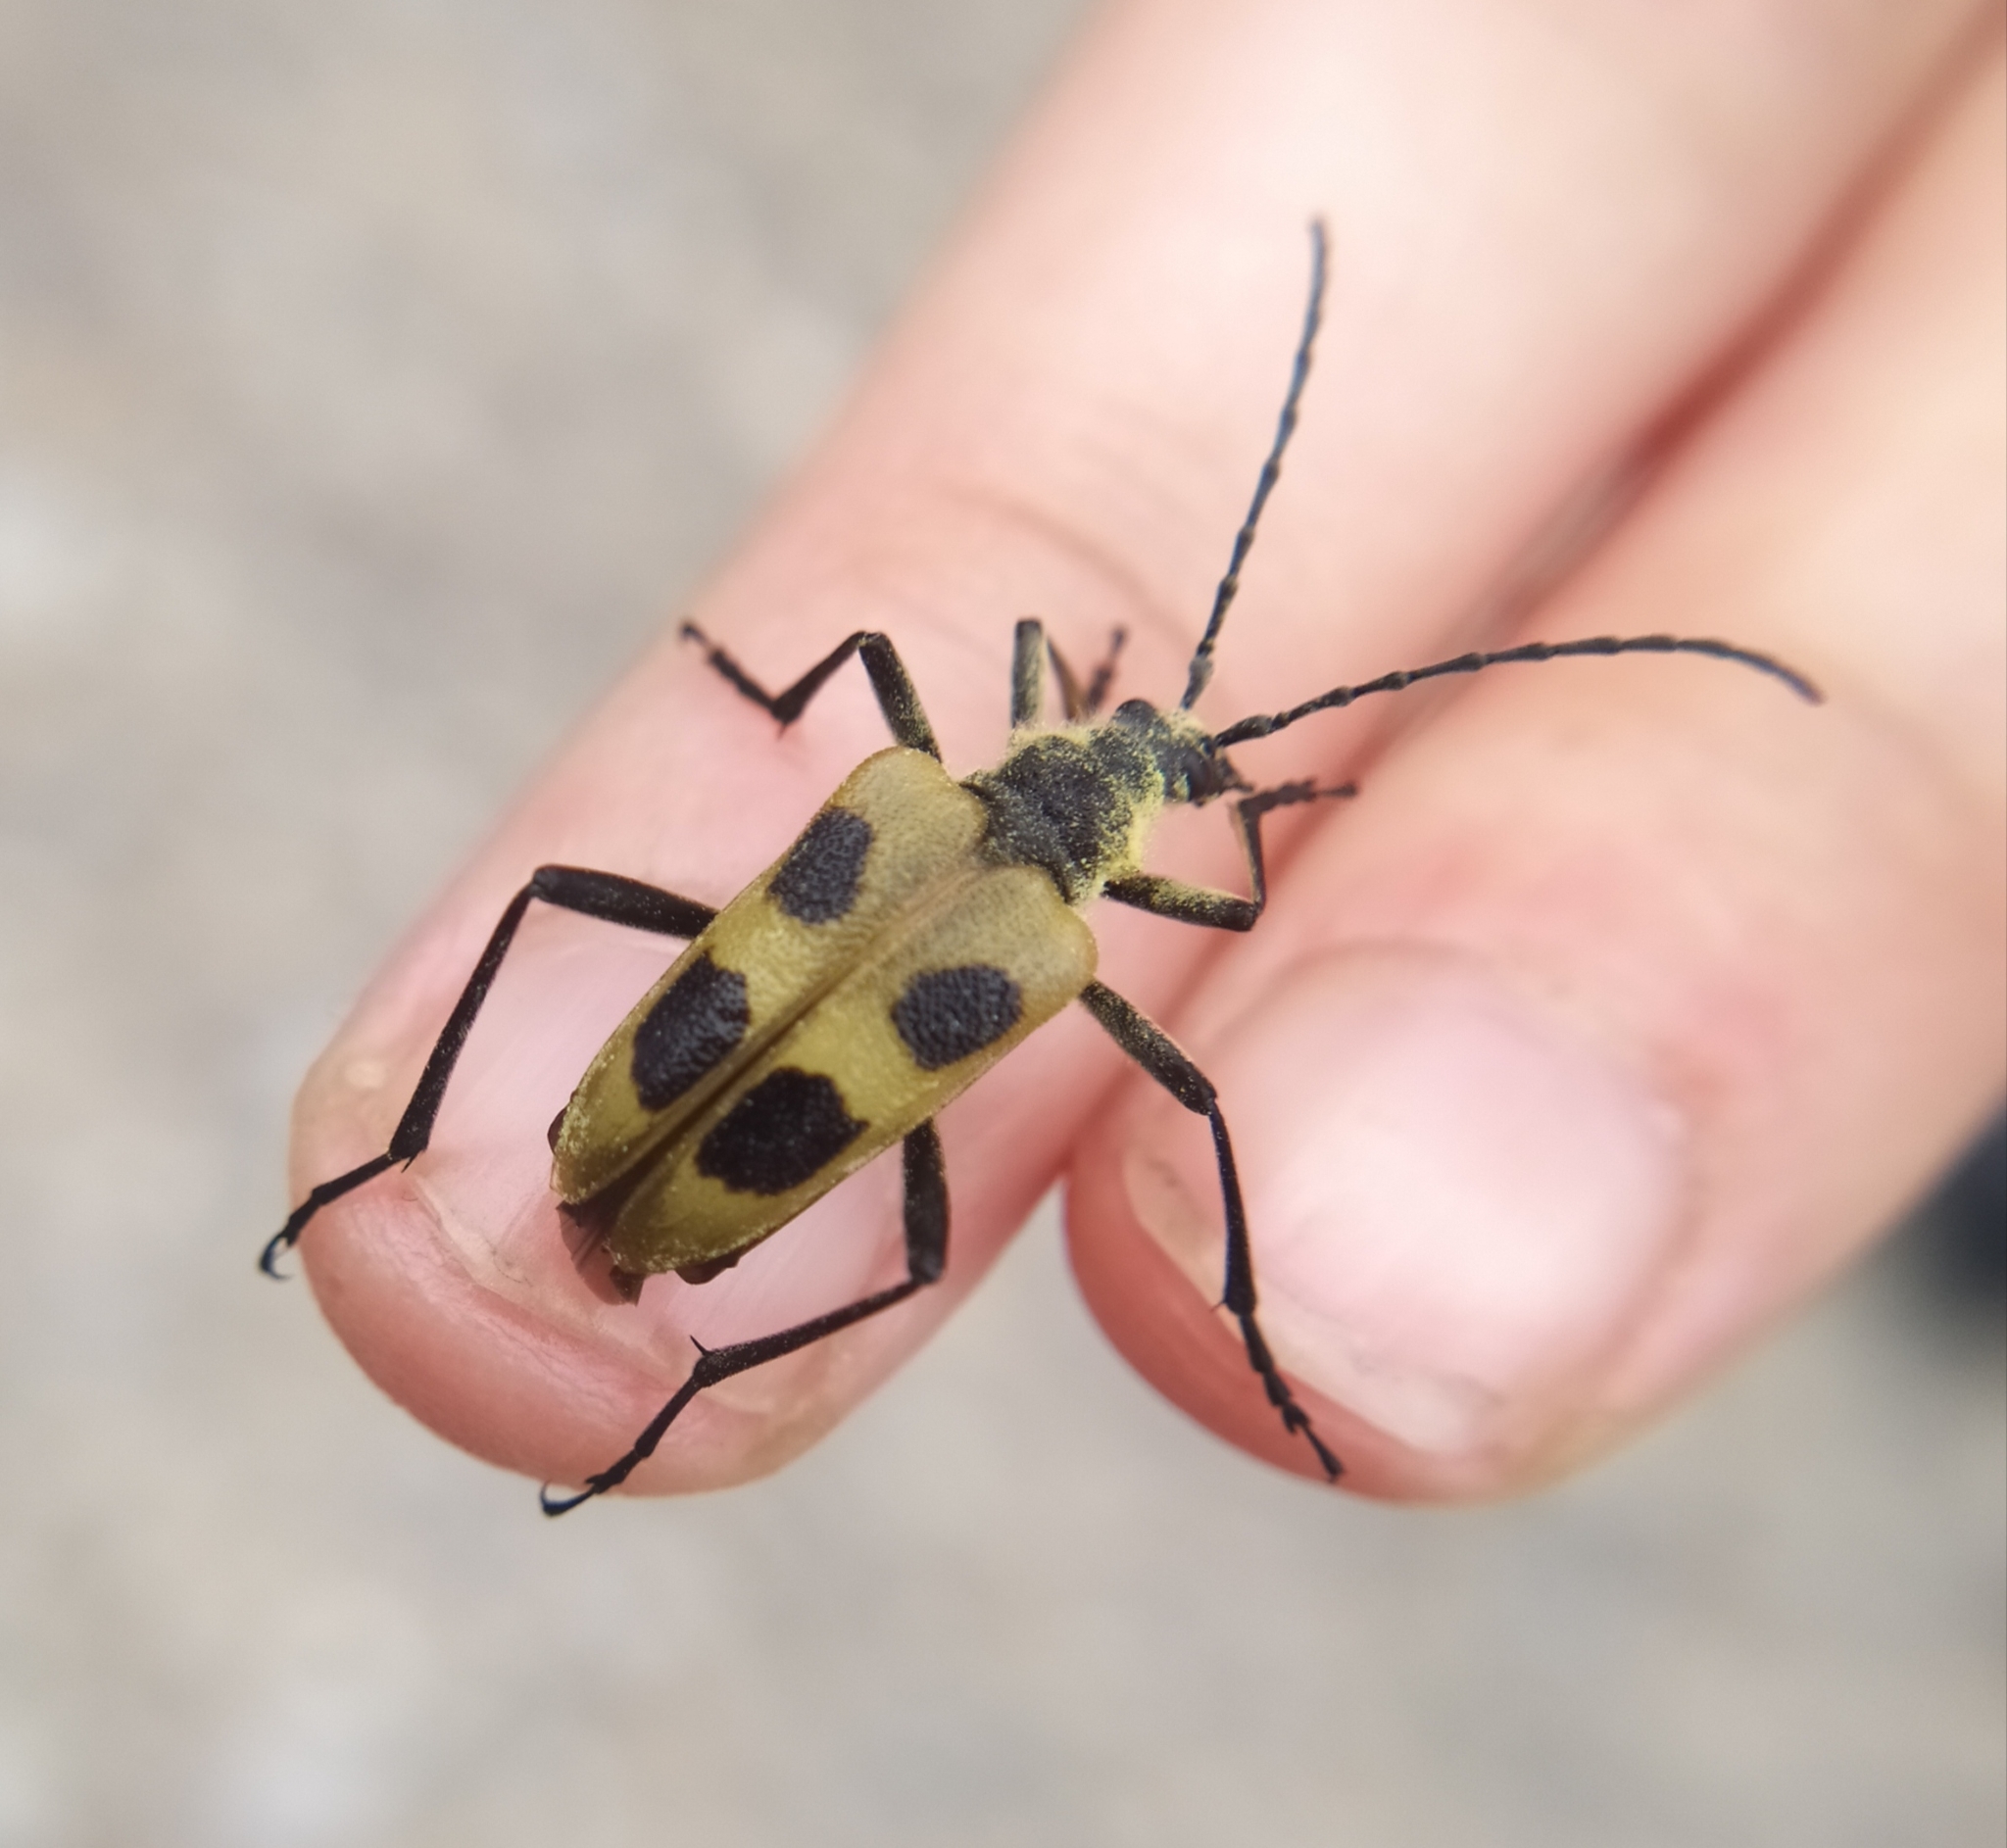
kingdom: Animalia
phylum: Arthropoda
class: Insecta
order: Coleoptera
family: Cerambycidae
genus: Pachyta
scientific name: Pachyta quadrimaculata
